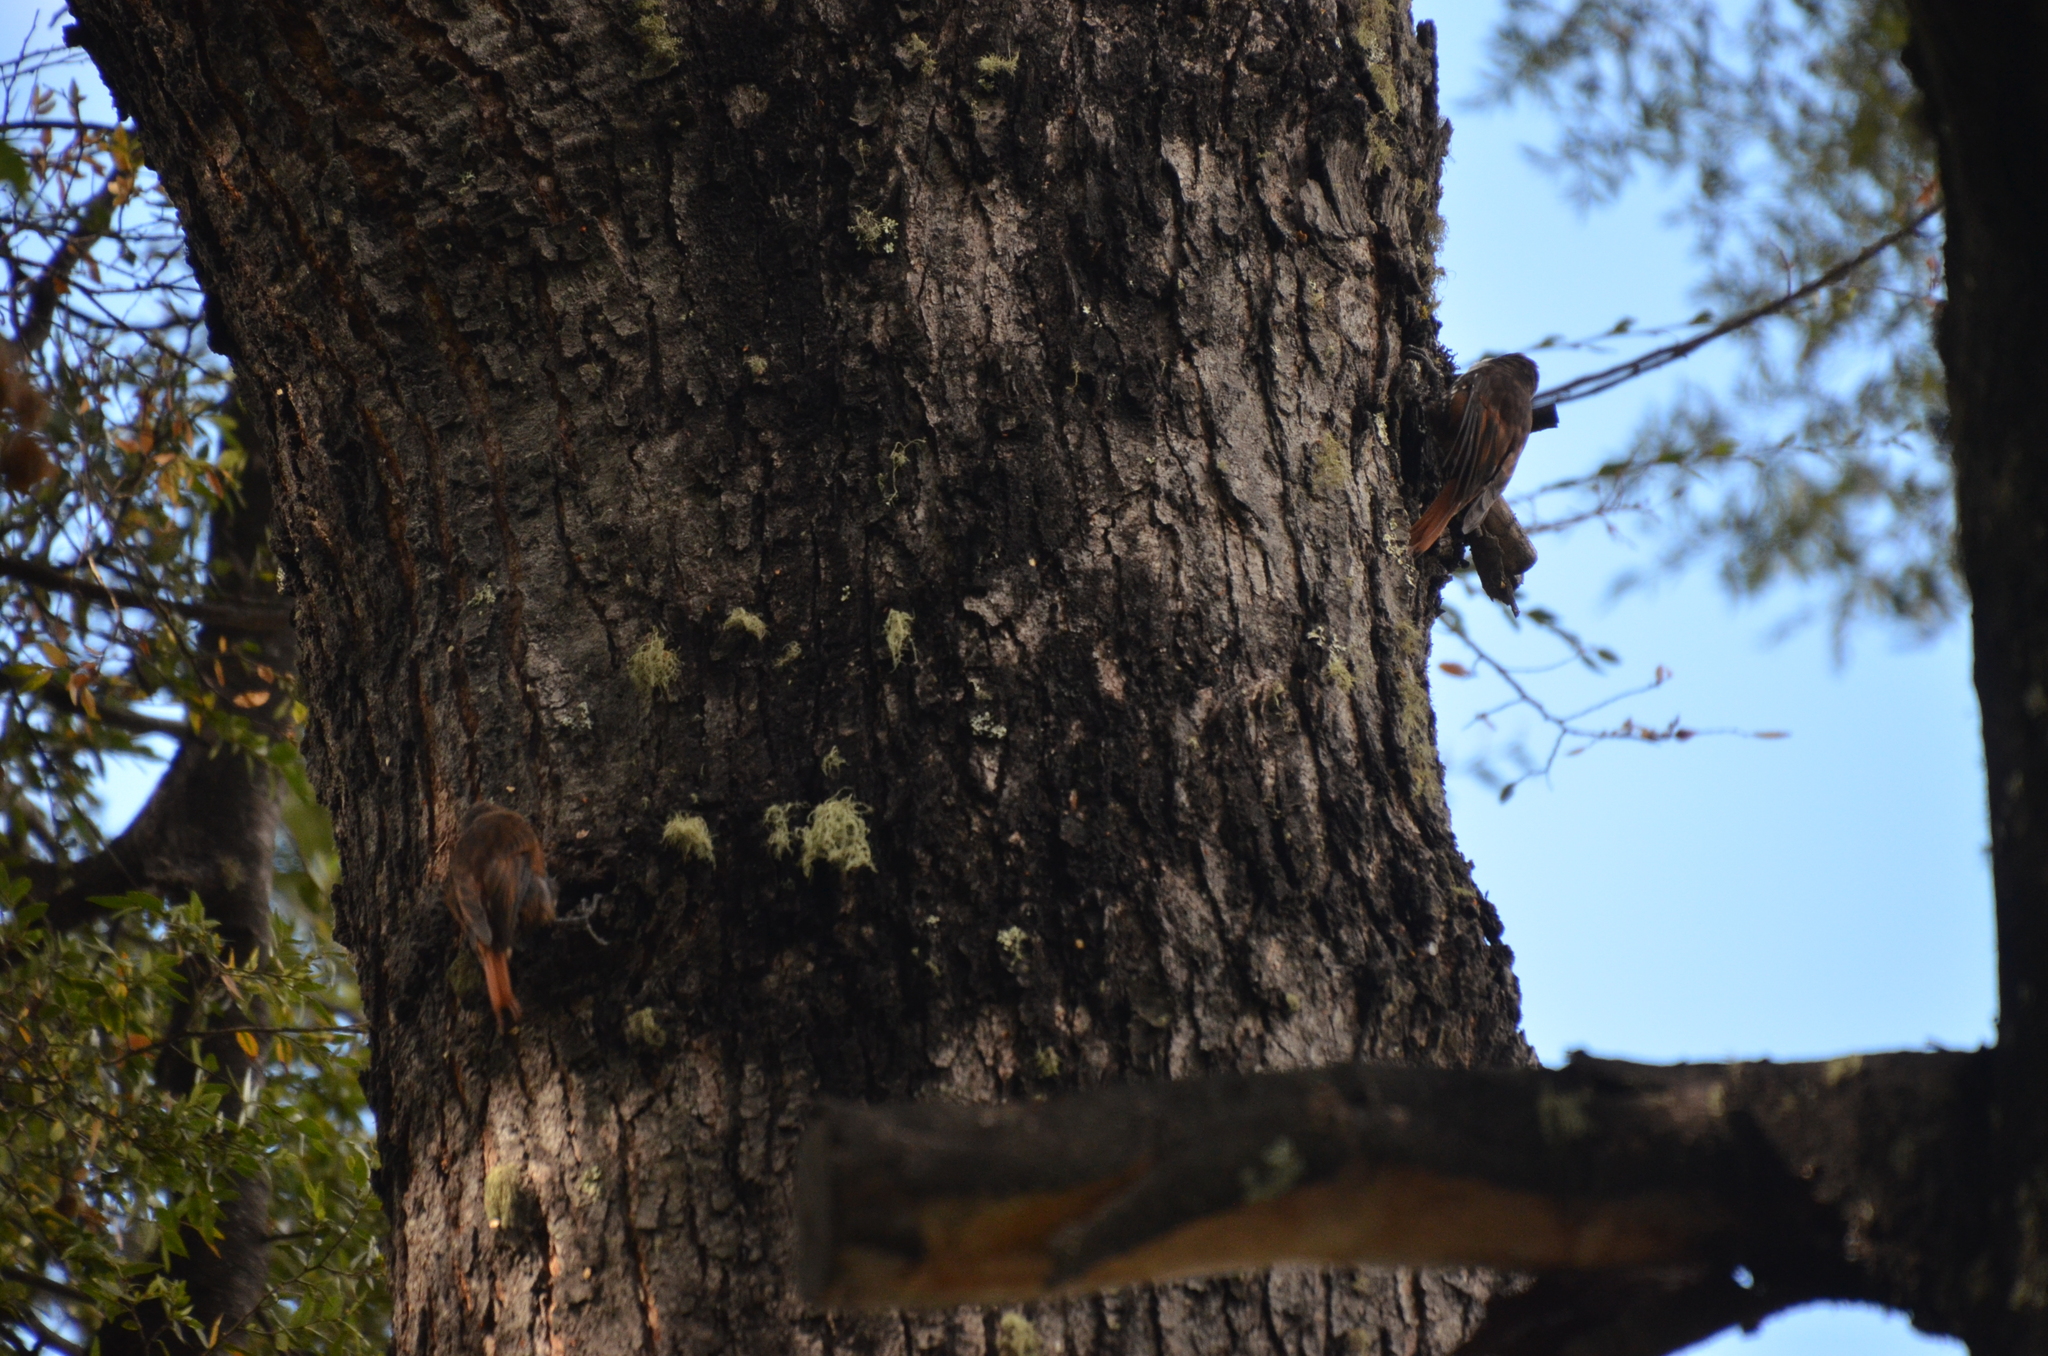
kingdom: Animalia
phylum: Chordata
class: Aves
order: Passeriformes
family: Furnariidae
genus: Pygarrhichas
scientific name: Pygarrhichas albogularis
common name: White-throated treerunner
